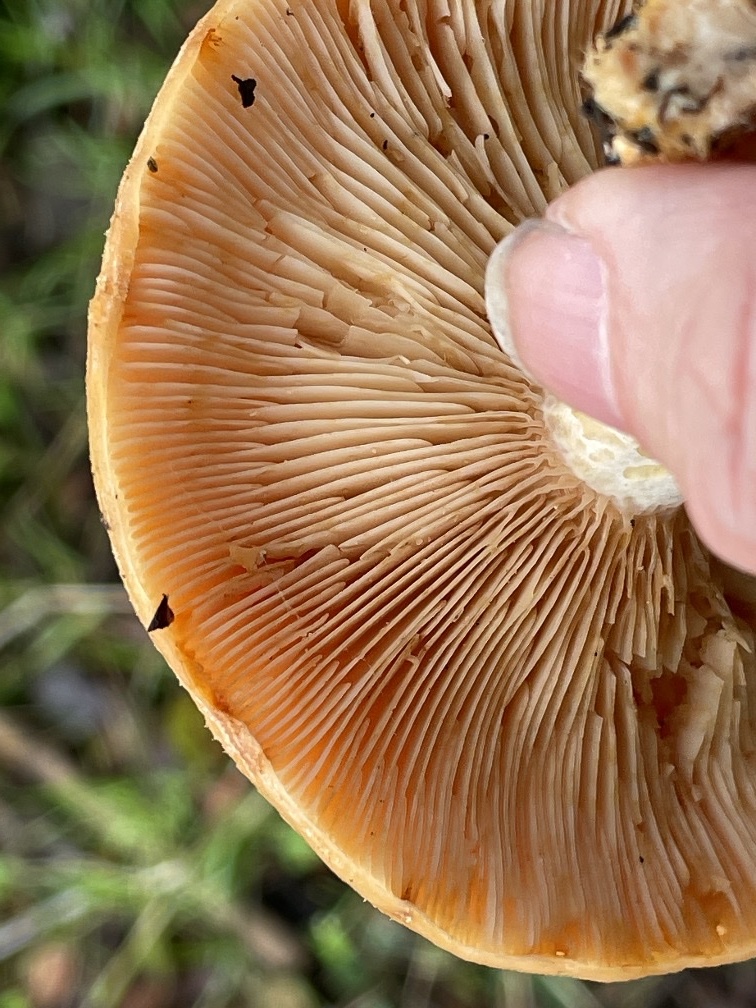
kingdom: Fungi
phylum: Basidiomycota
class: Agaricomycetes
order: Russulales
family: Russulaceae
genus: Lactarius
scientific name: Lactarius alnicola
